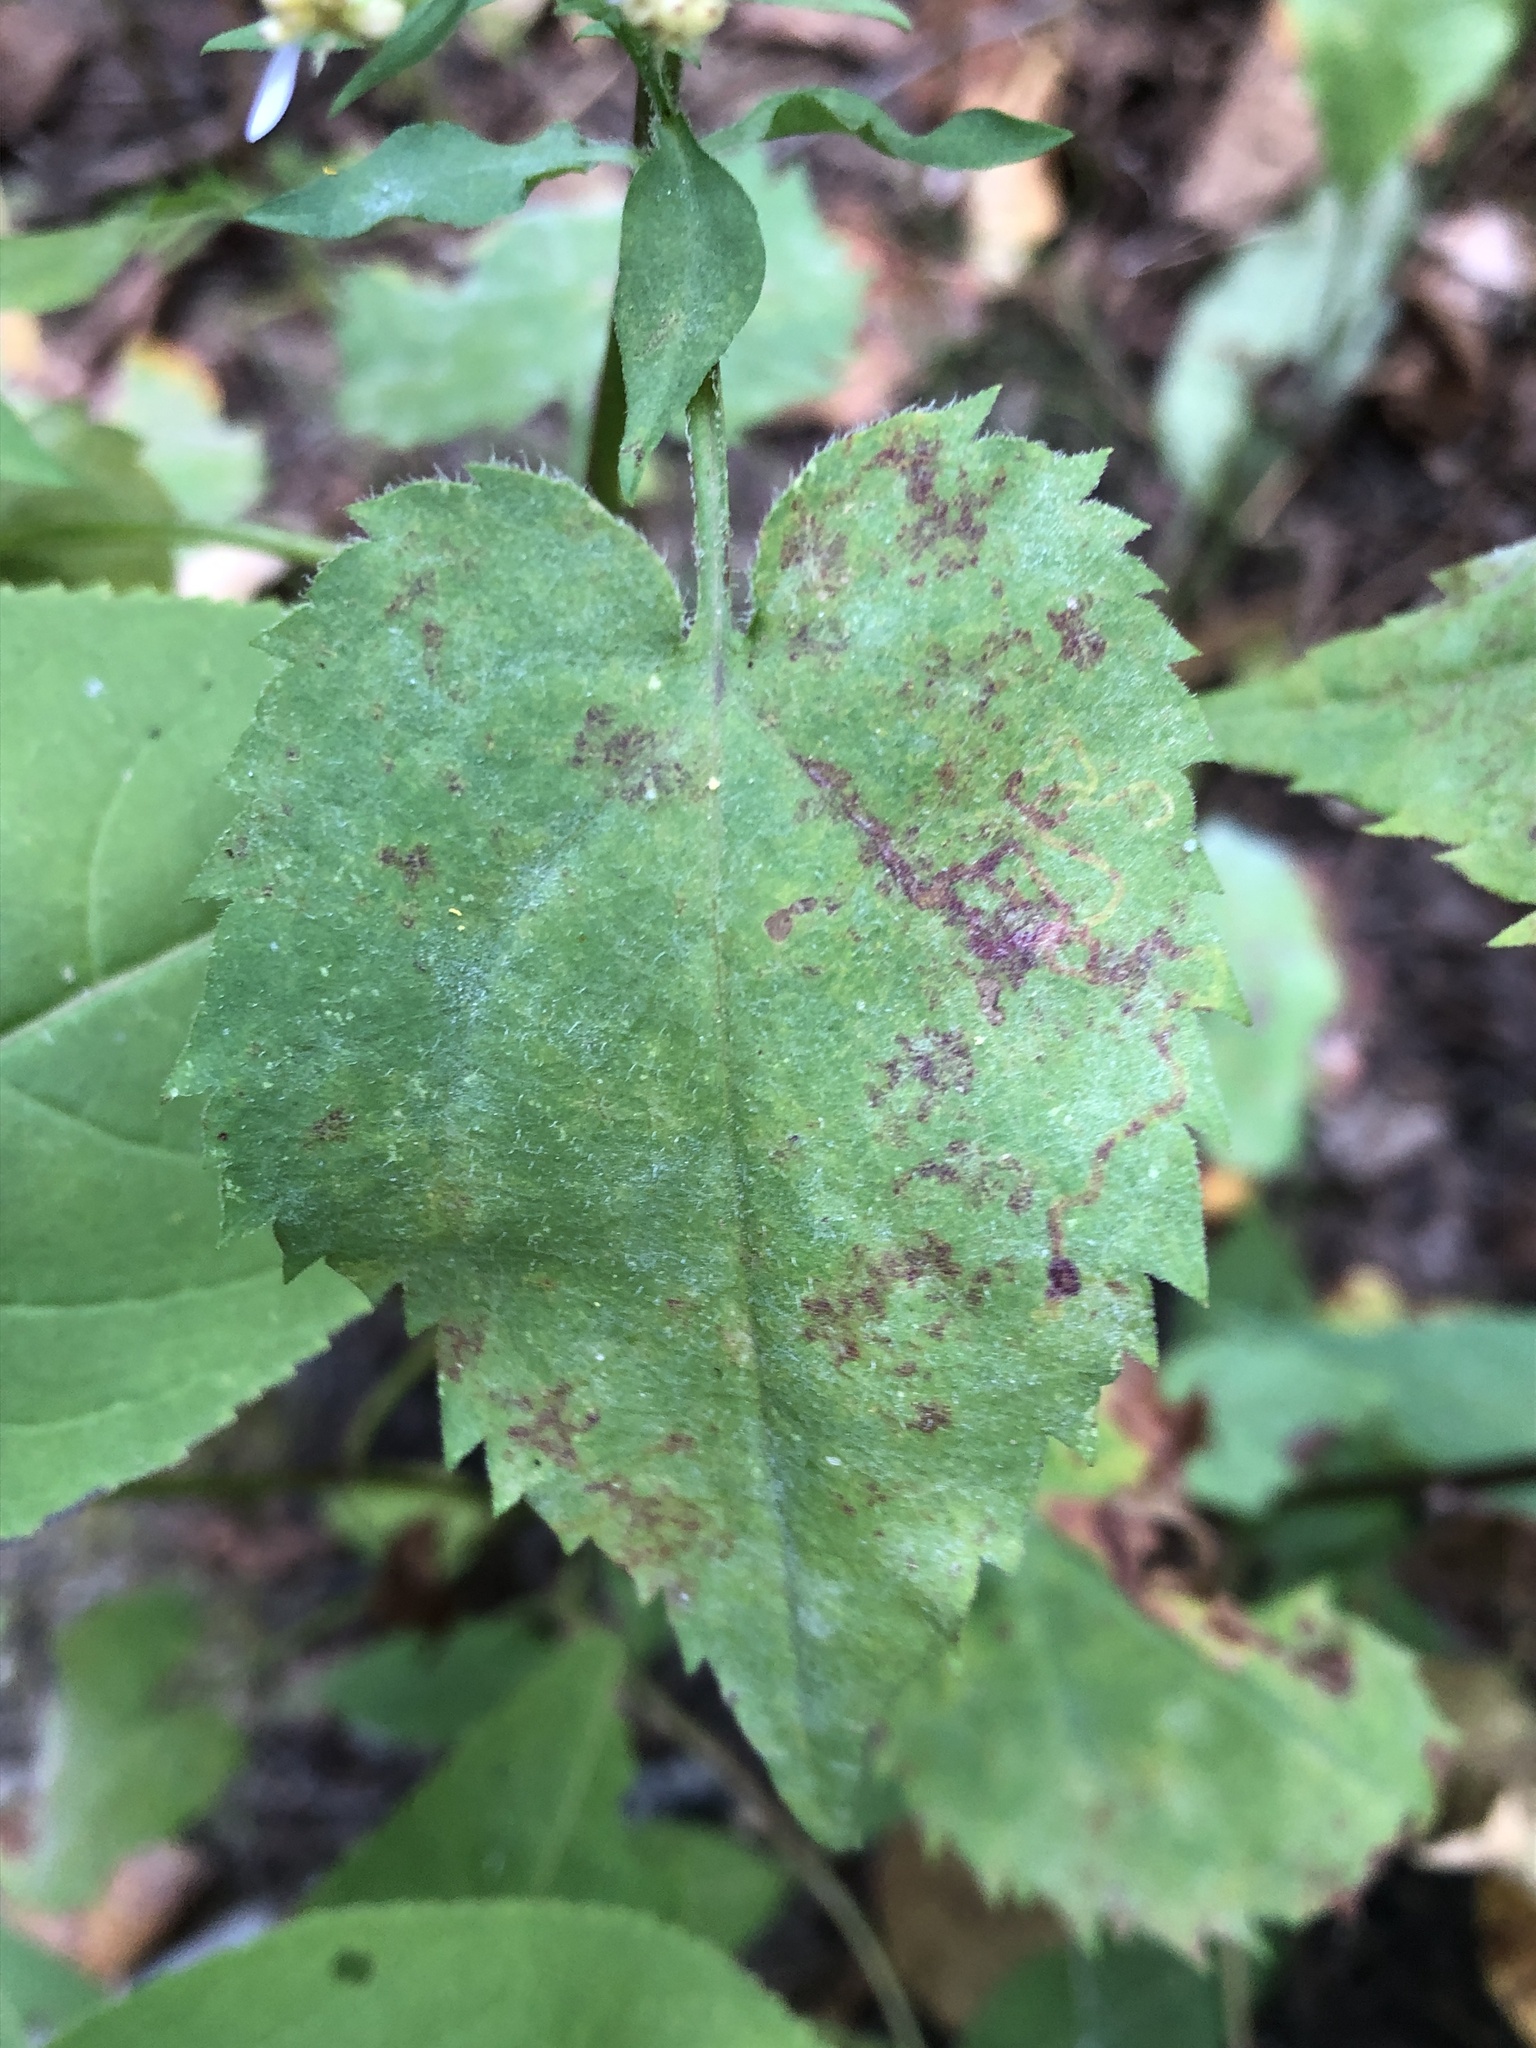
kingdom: Plantae
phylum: Tracheophyta
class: Magnoliopsida
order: Asterales
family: Asteraceae
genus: Symphyotrichum
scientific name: Symphyotrichum cordifolium
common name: Beeweed
